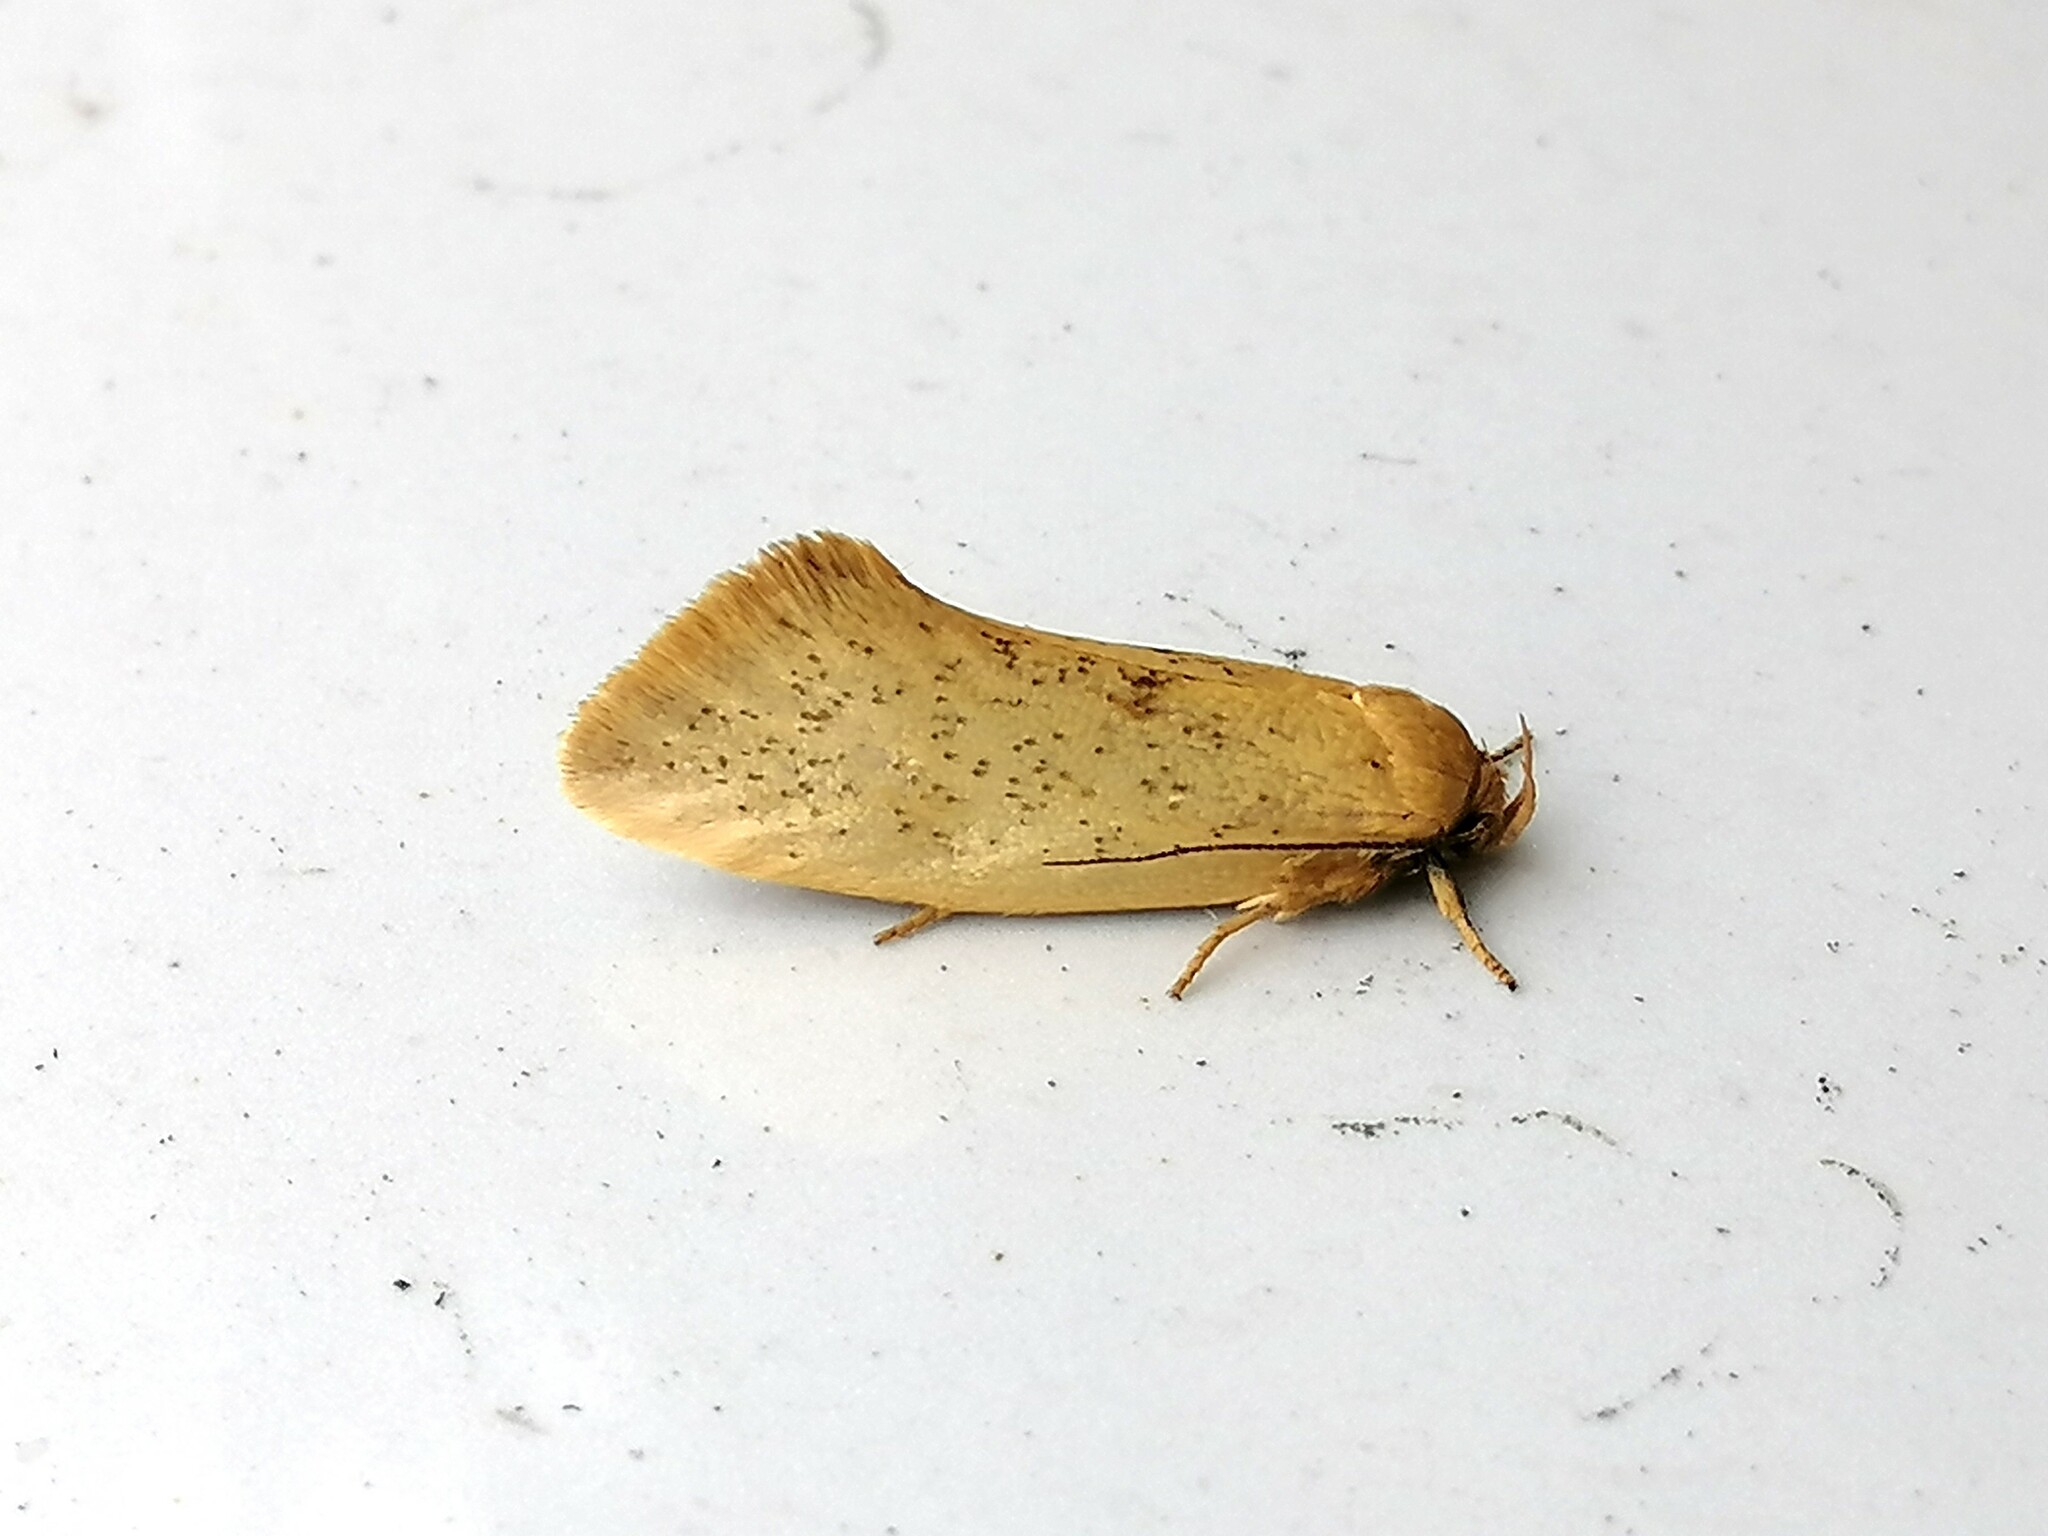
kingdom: Animalia
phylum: Arthropoda
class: Insecta
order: Lepidoptera
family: Oecophoridae
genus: Tingena
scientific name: Tingena armigerella
